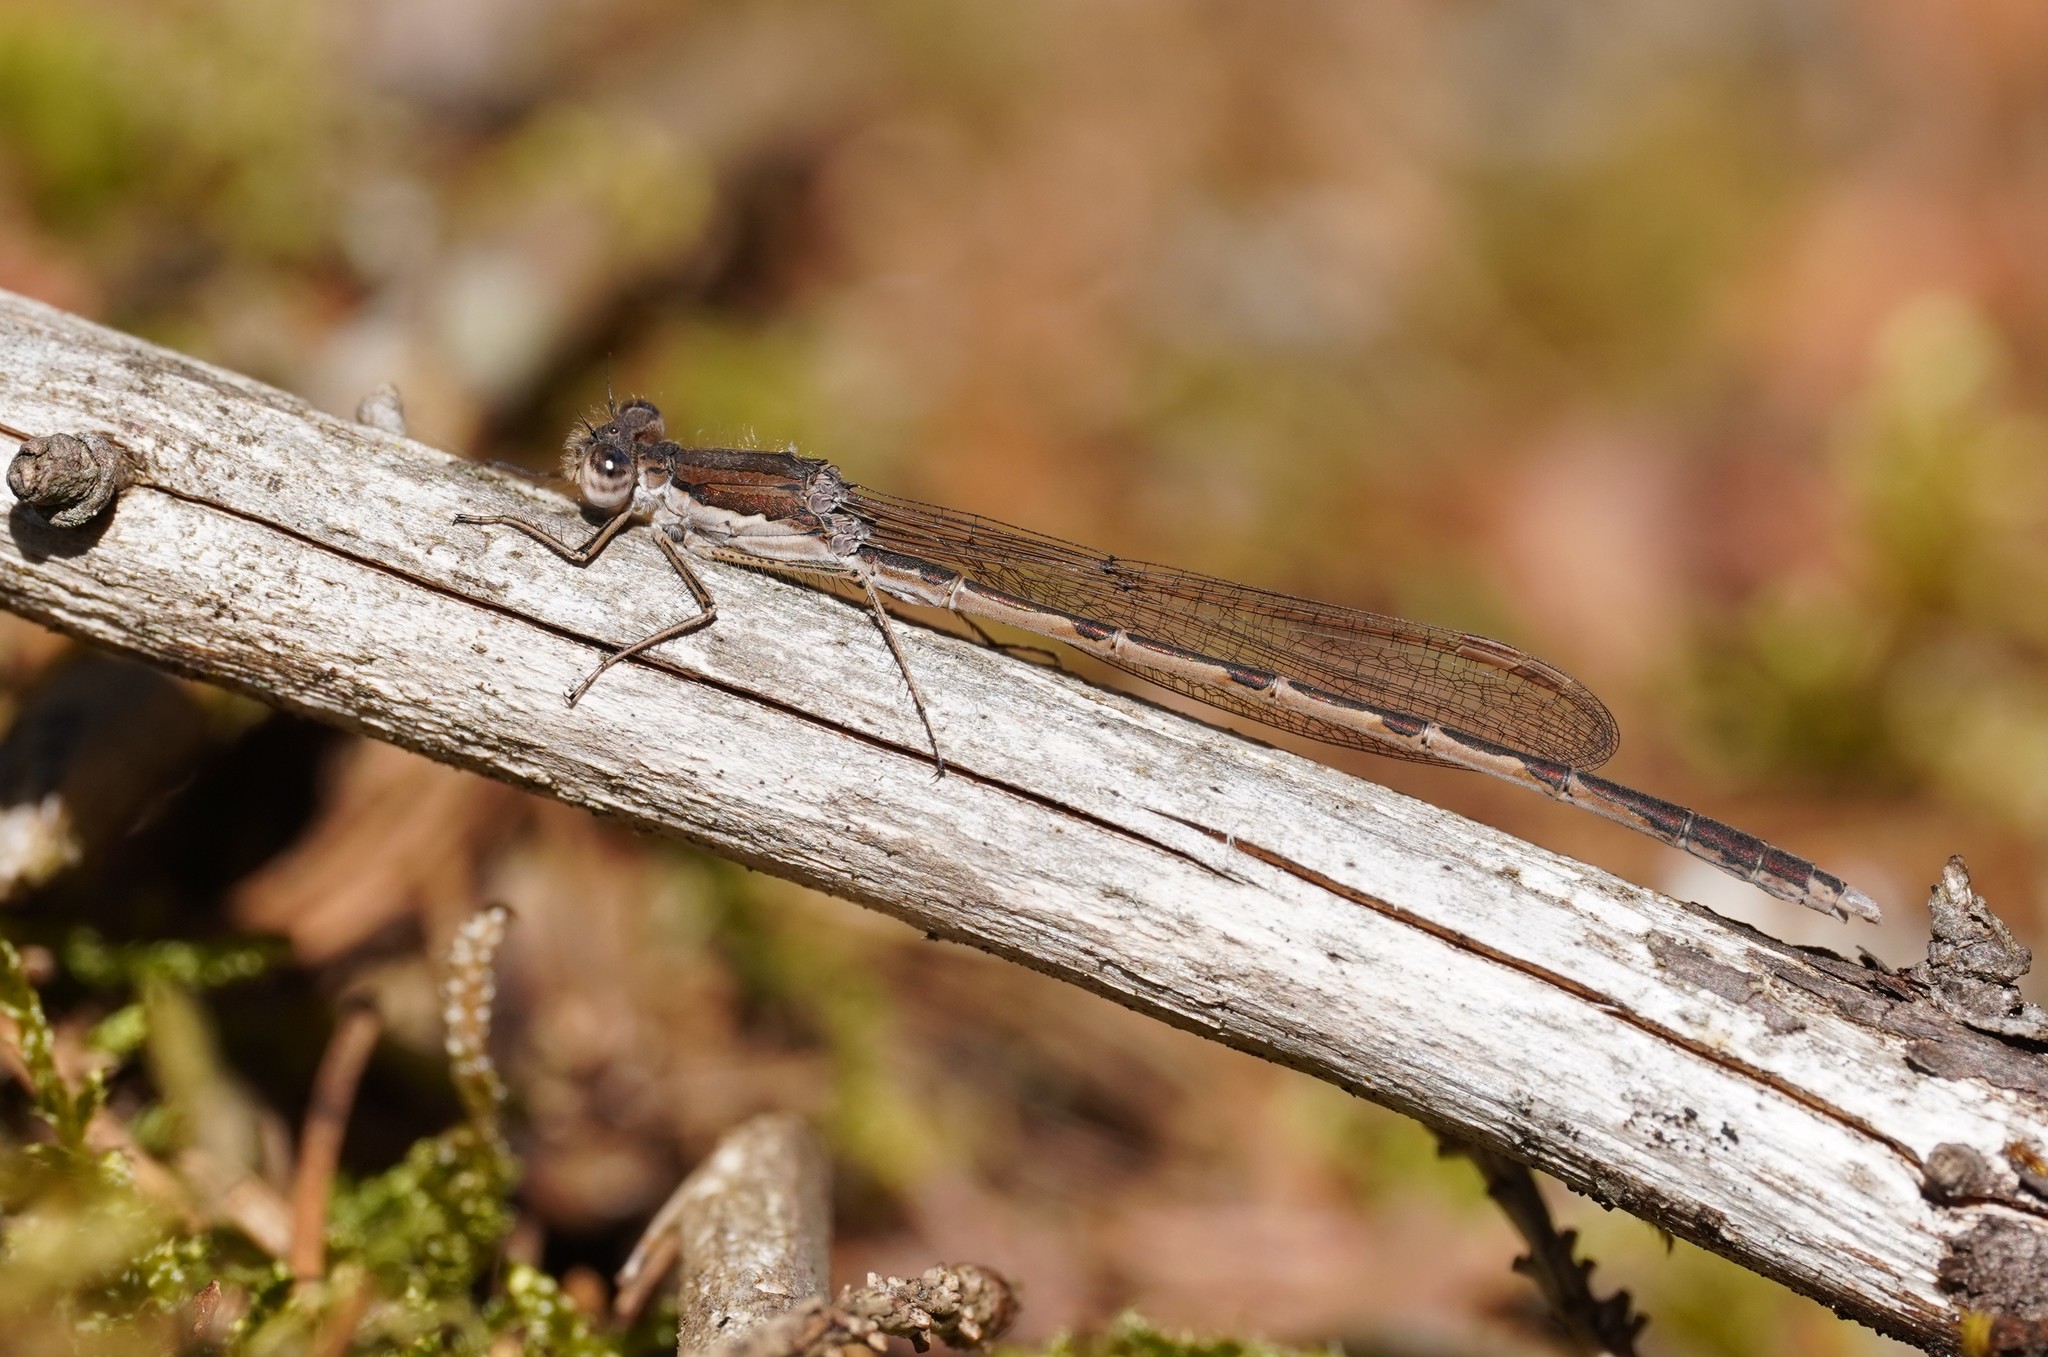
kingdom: Animalia
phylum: Arthropoda
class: Insecta
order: Odonata
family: Lestidae
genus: Sympecma
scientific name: Sympecma fusca
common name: Common winter damsel
